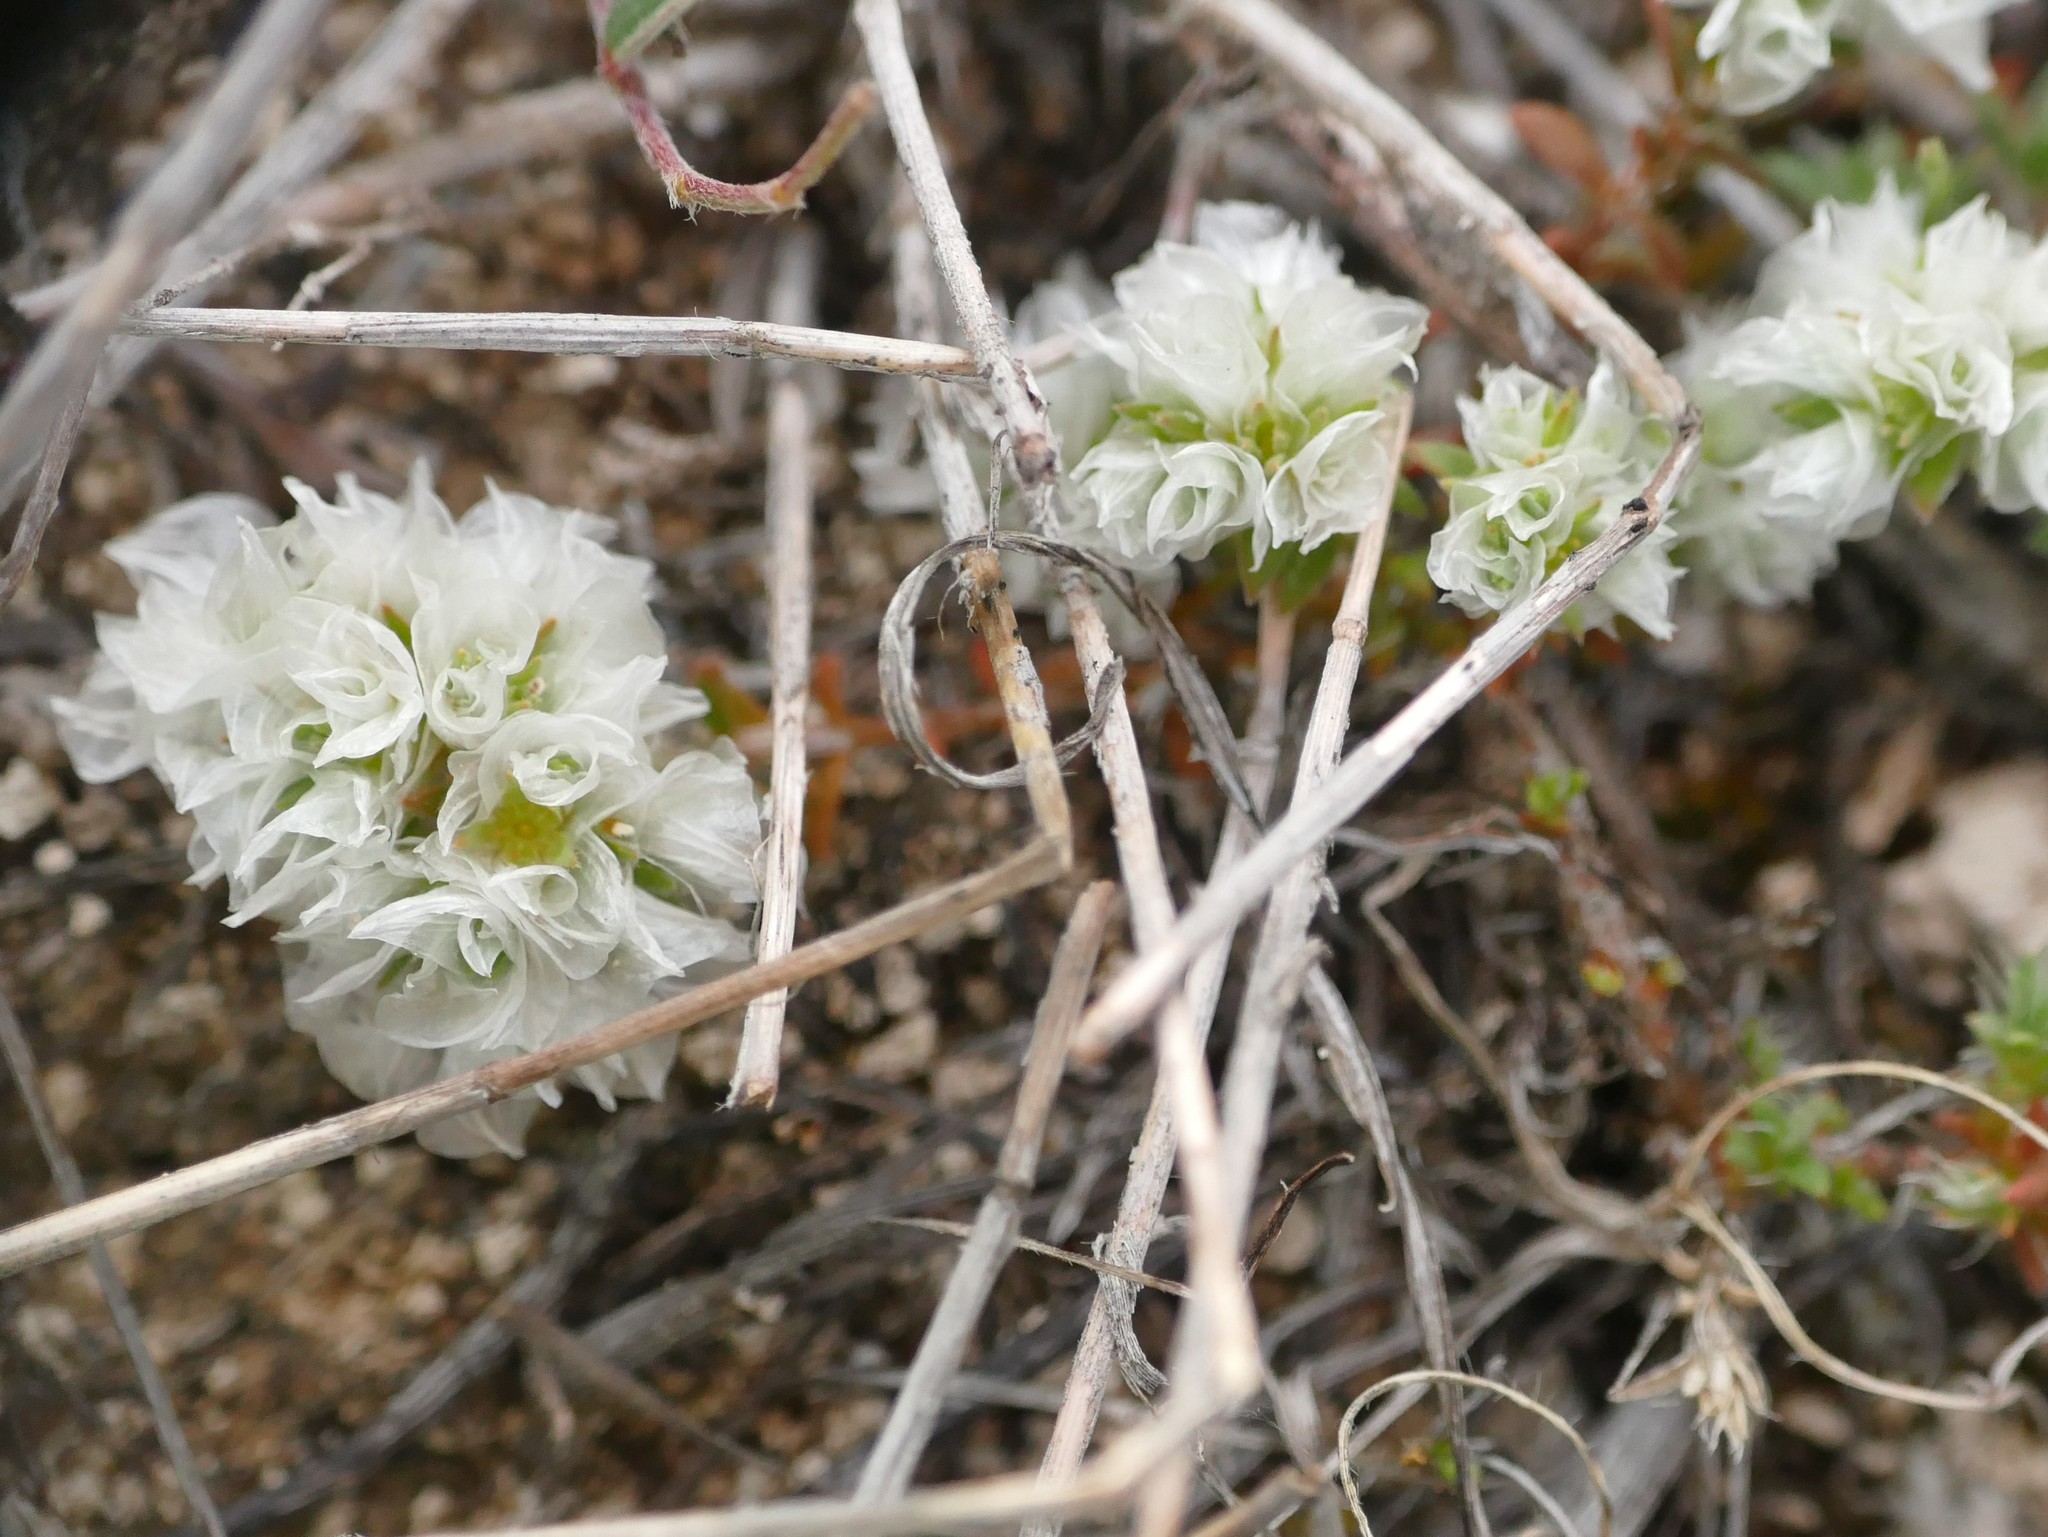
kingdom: Plantae
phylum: Tracheophyta
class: Magnoliopsida
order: Caryophyllales
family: Caryophyllaceae
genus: Paronychia
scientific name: Paronychia argentea
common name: Silver nailroot
